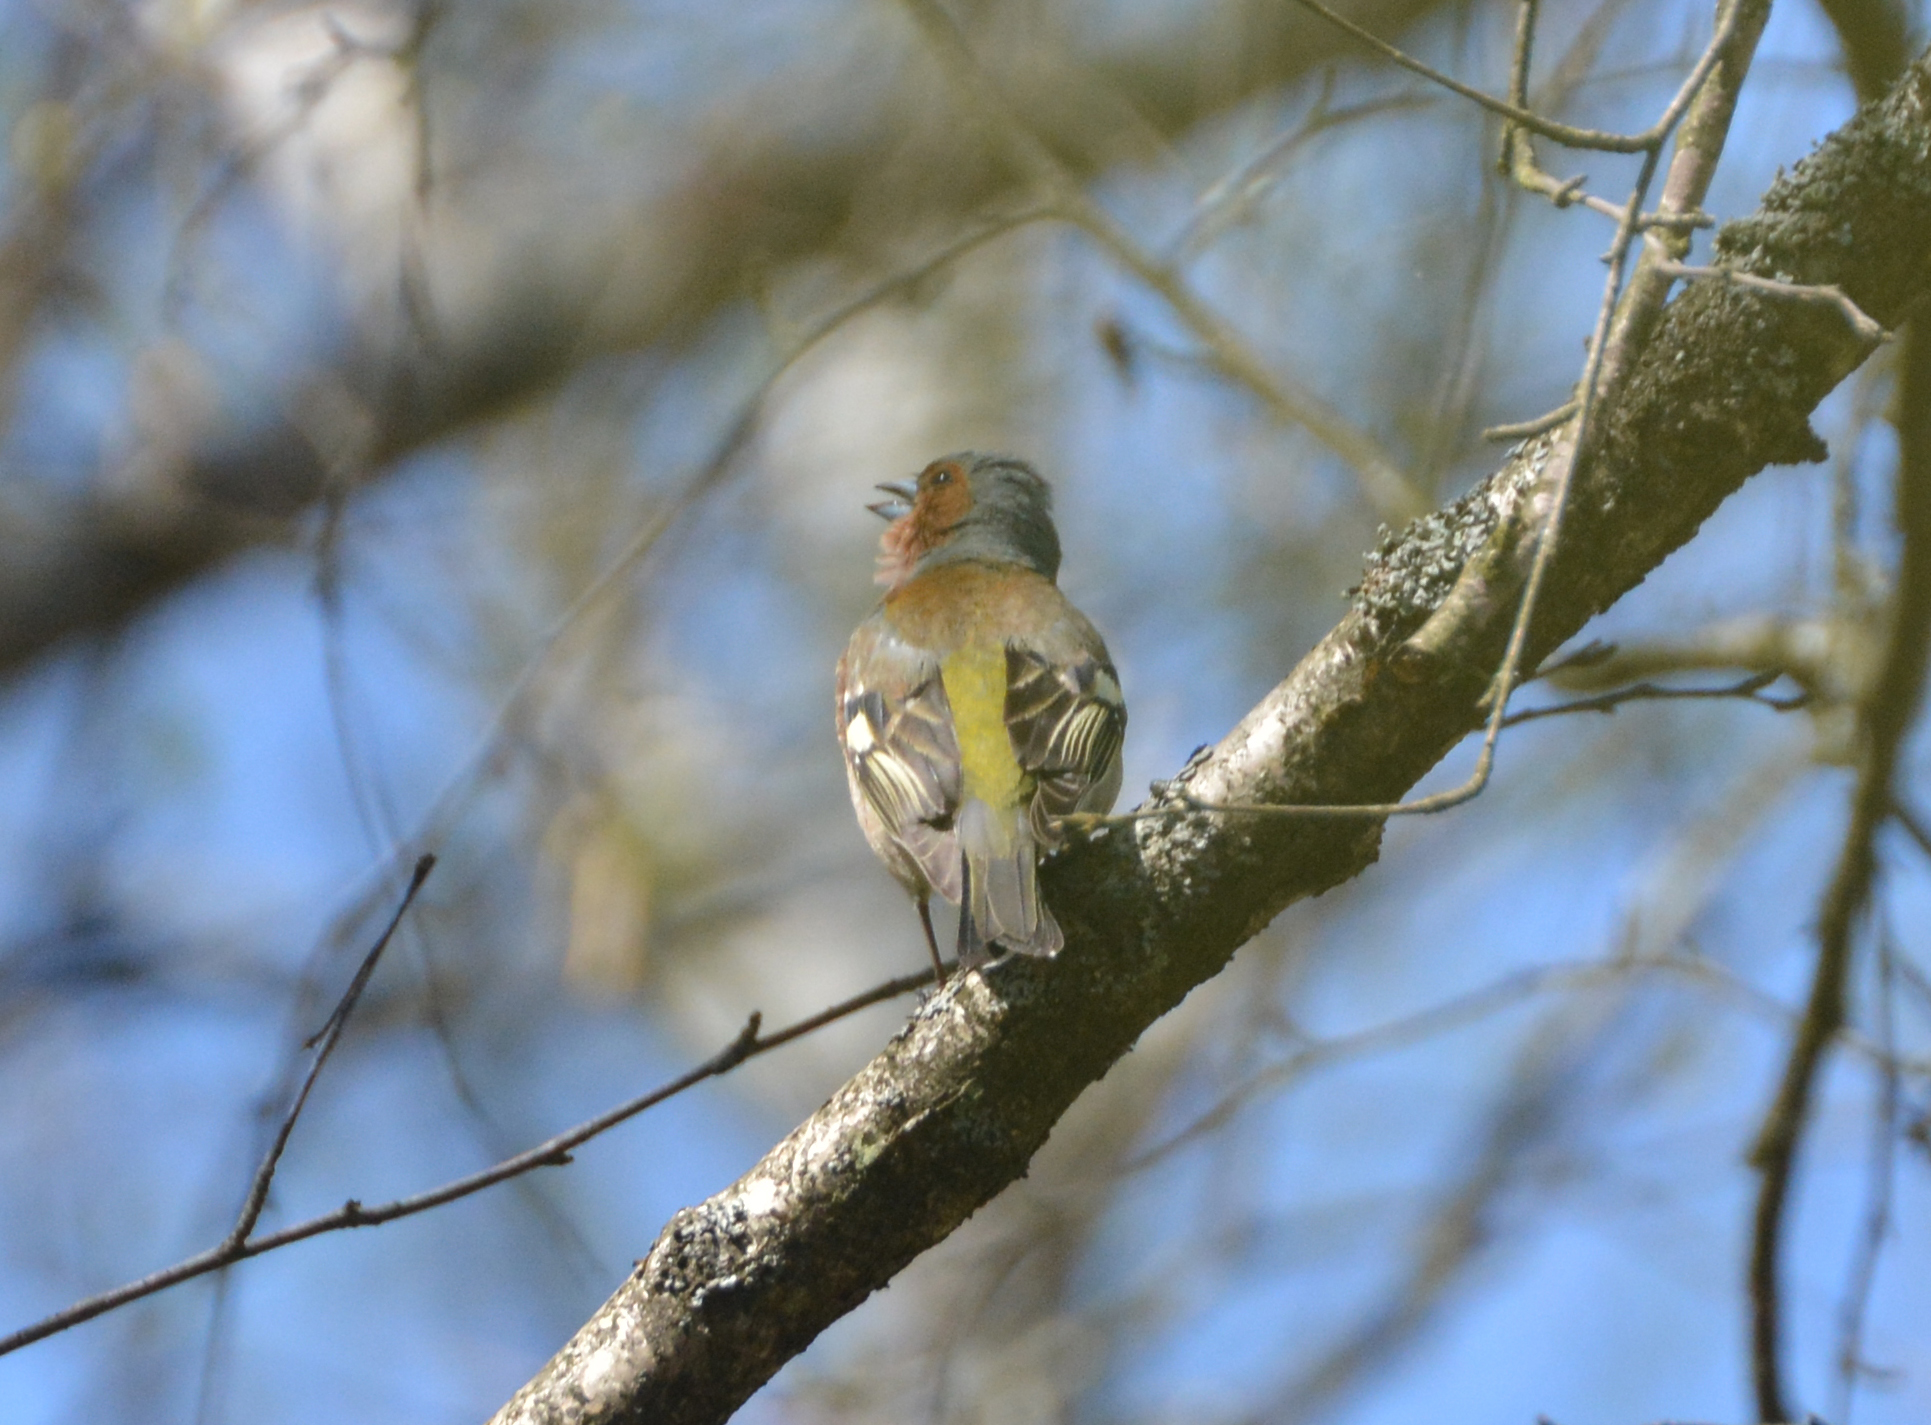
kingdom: Animalia
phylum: Chordata
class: Aves
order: Passeriformes
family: Fringillidae
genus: Fringilla
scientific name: Fringilla coelebs
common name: Common chaffinch
